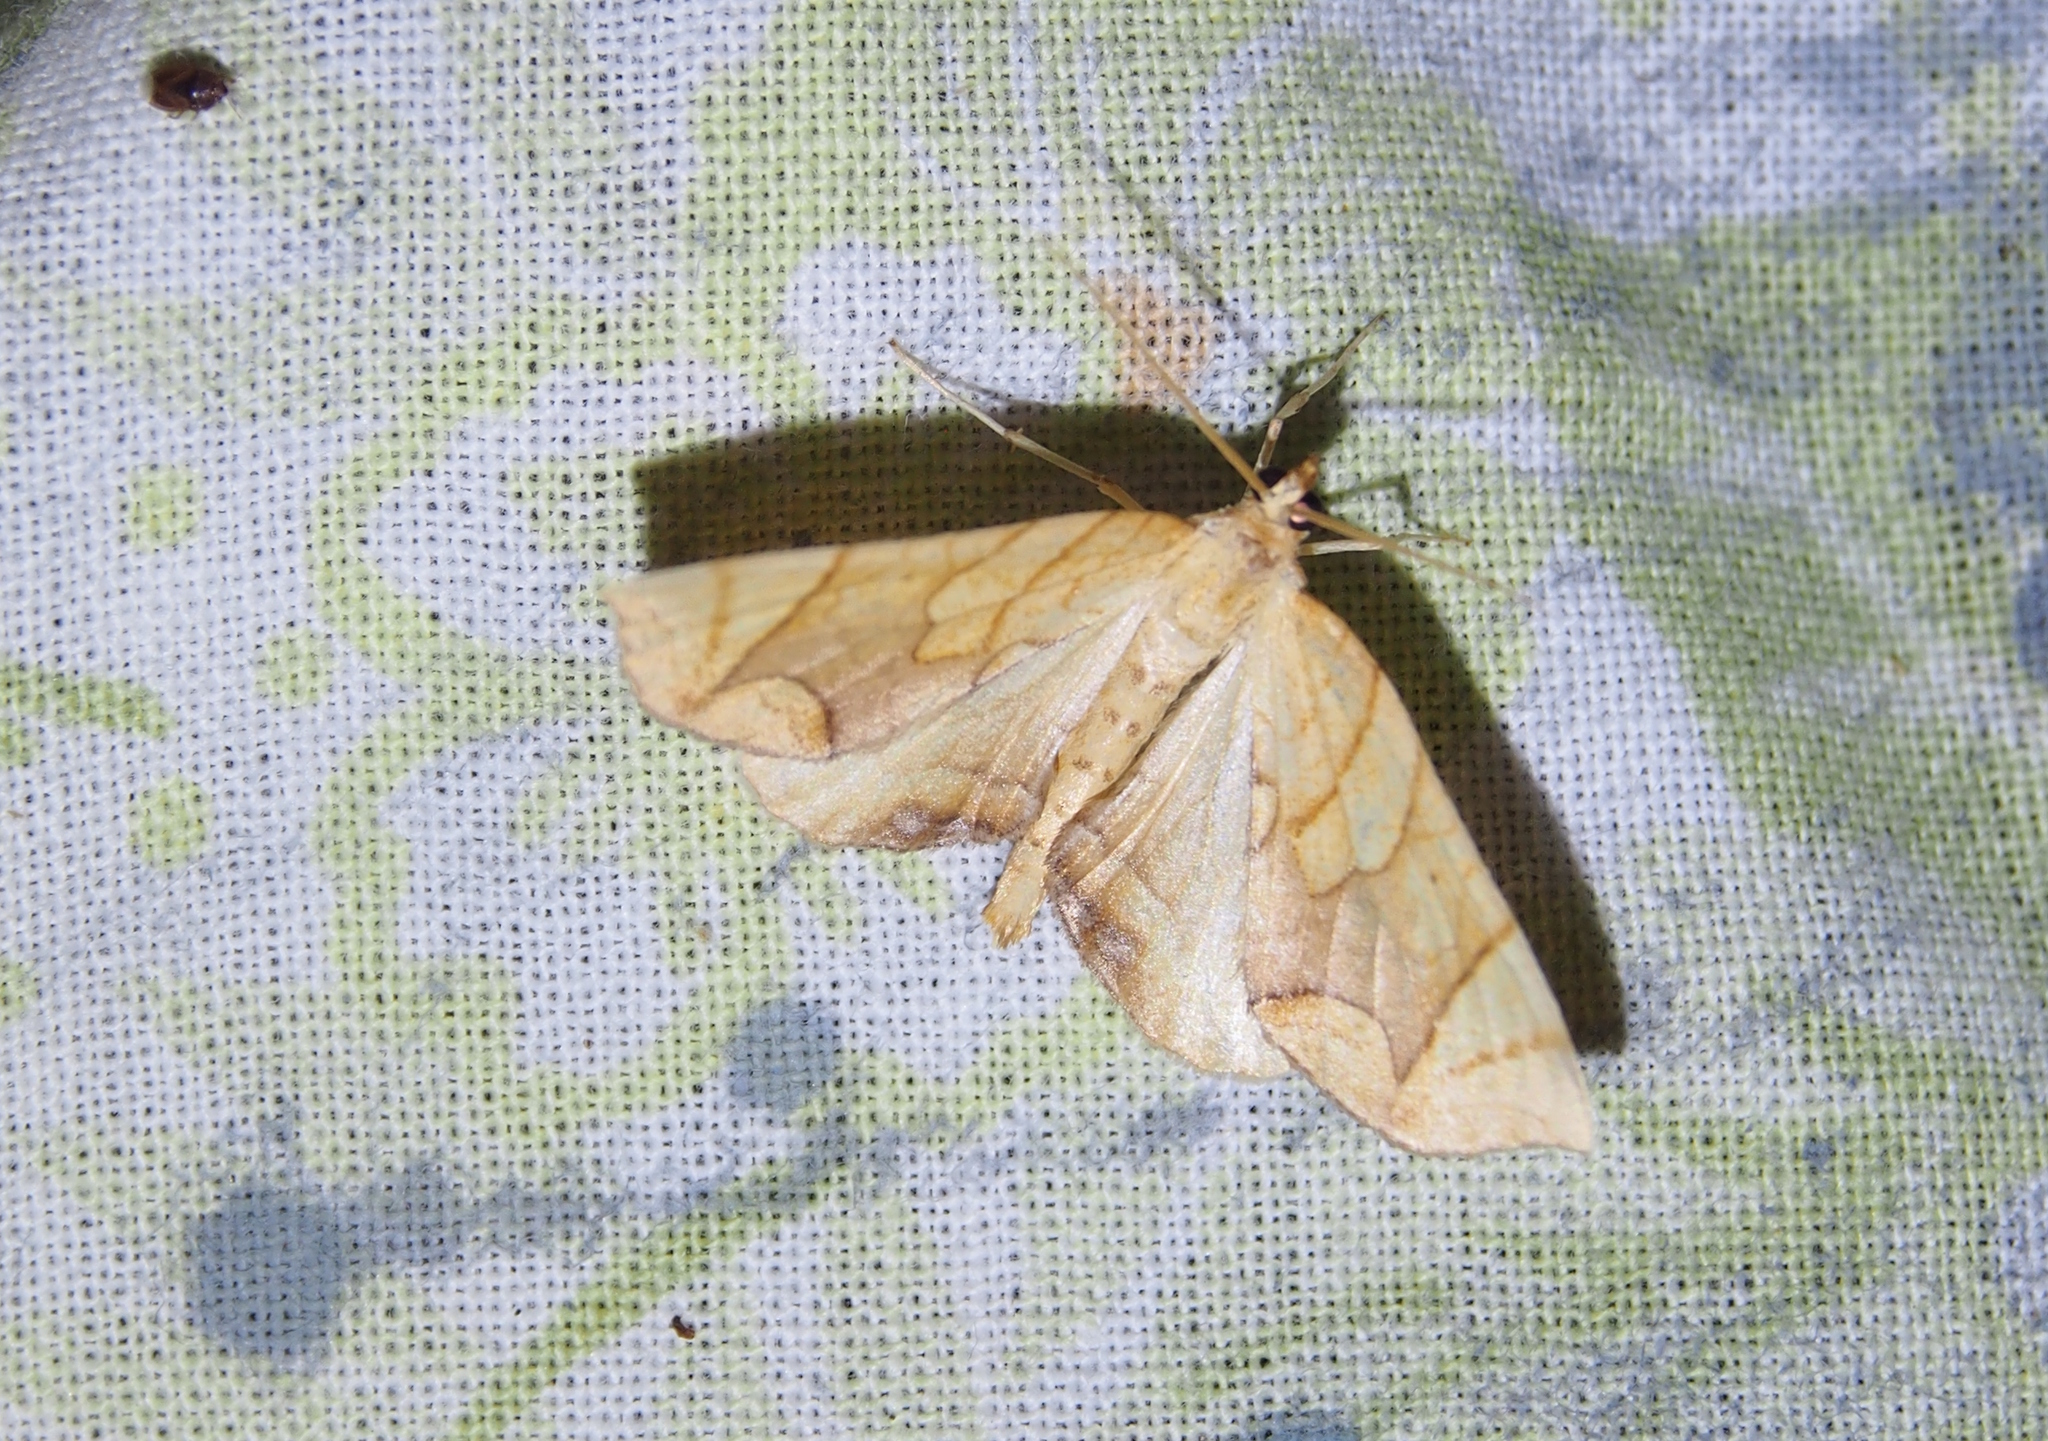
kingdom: Animalia
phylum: Arthropoda
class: Insecta
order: Lepidoptera
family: Geometridae
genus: Eulithis
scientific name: Eulithis diversilineata
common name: Grapevine looper
